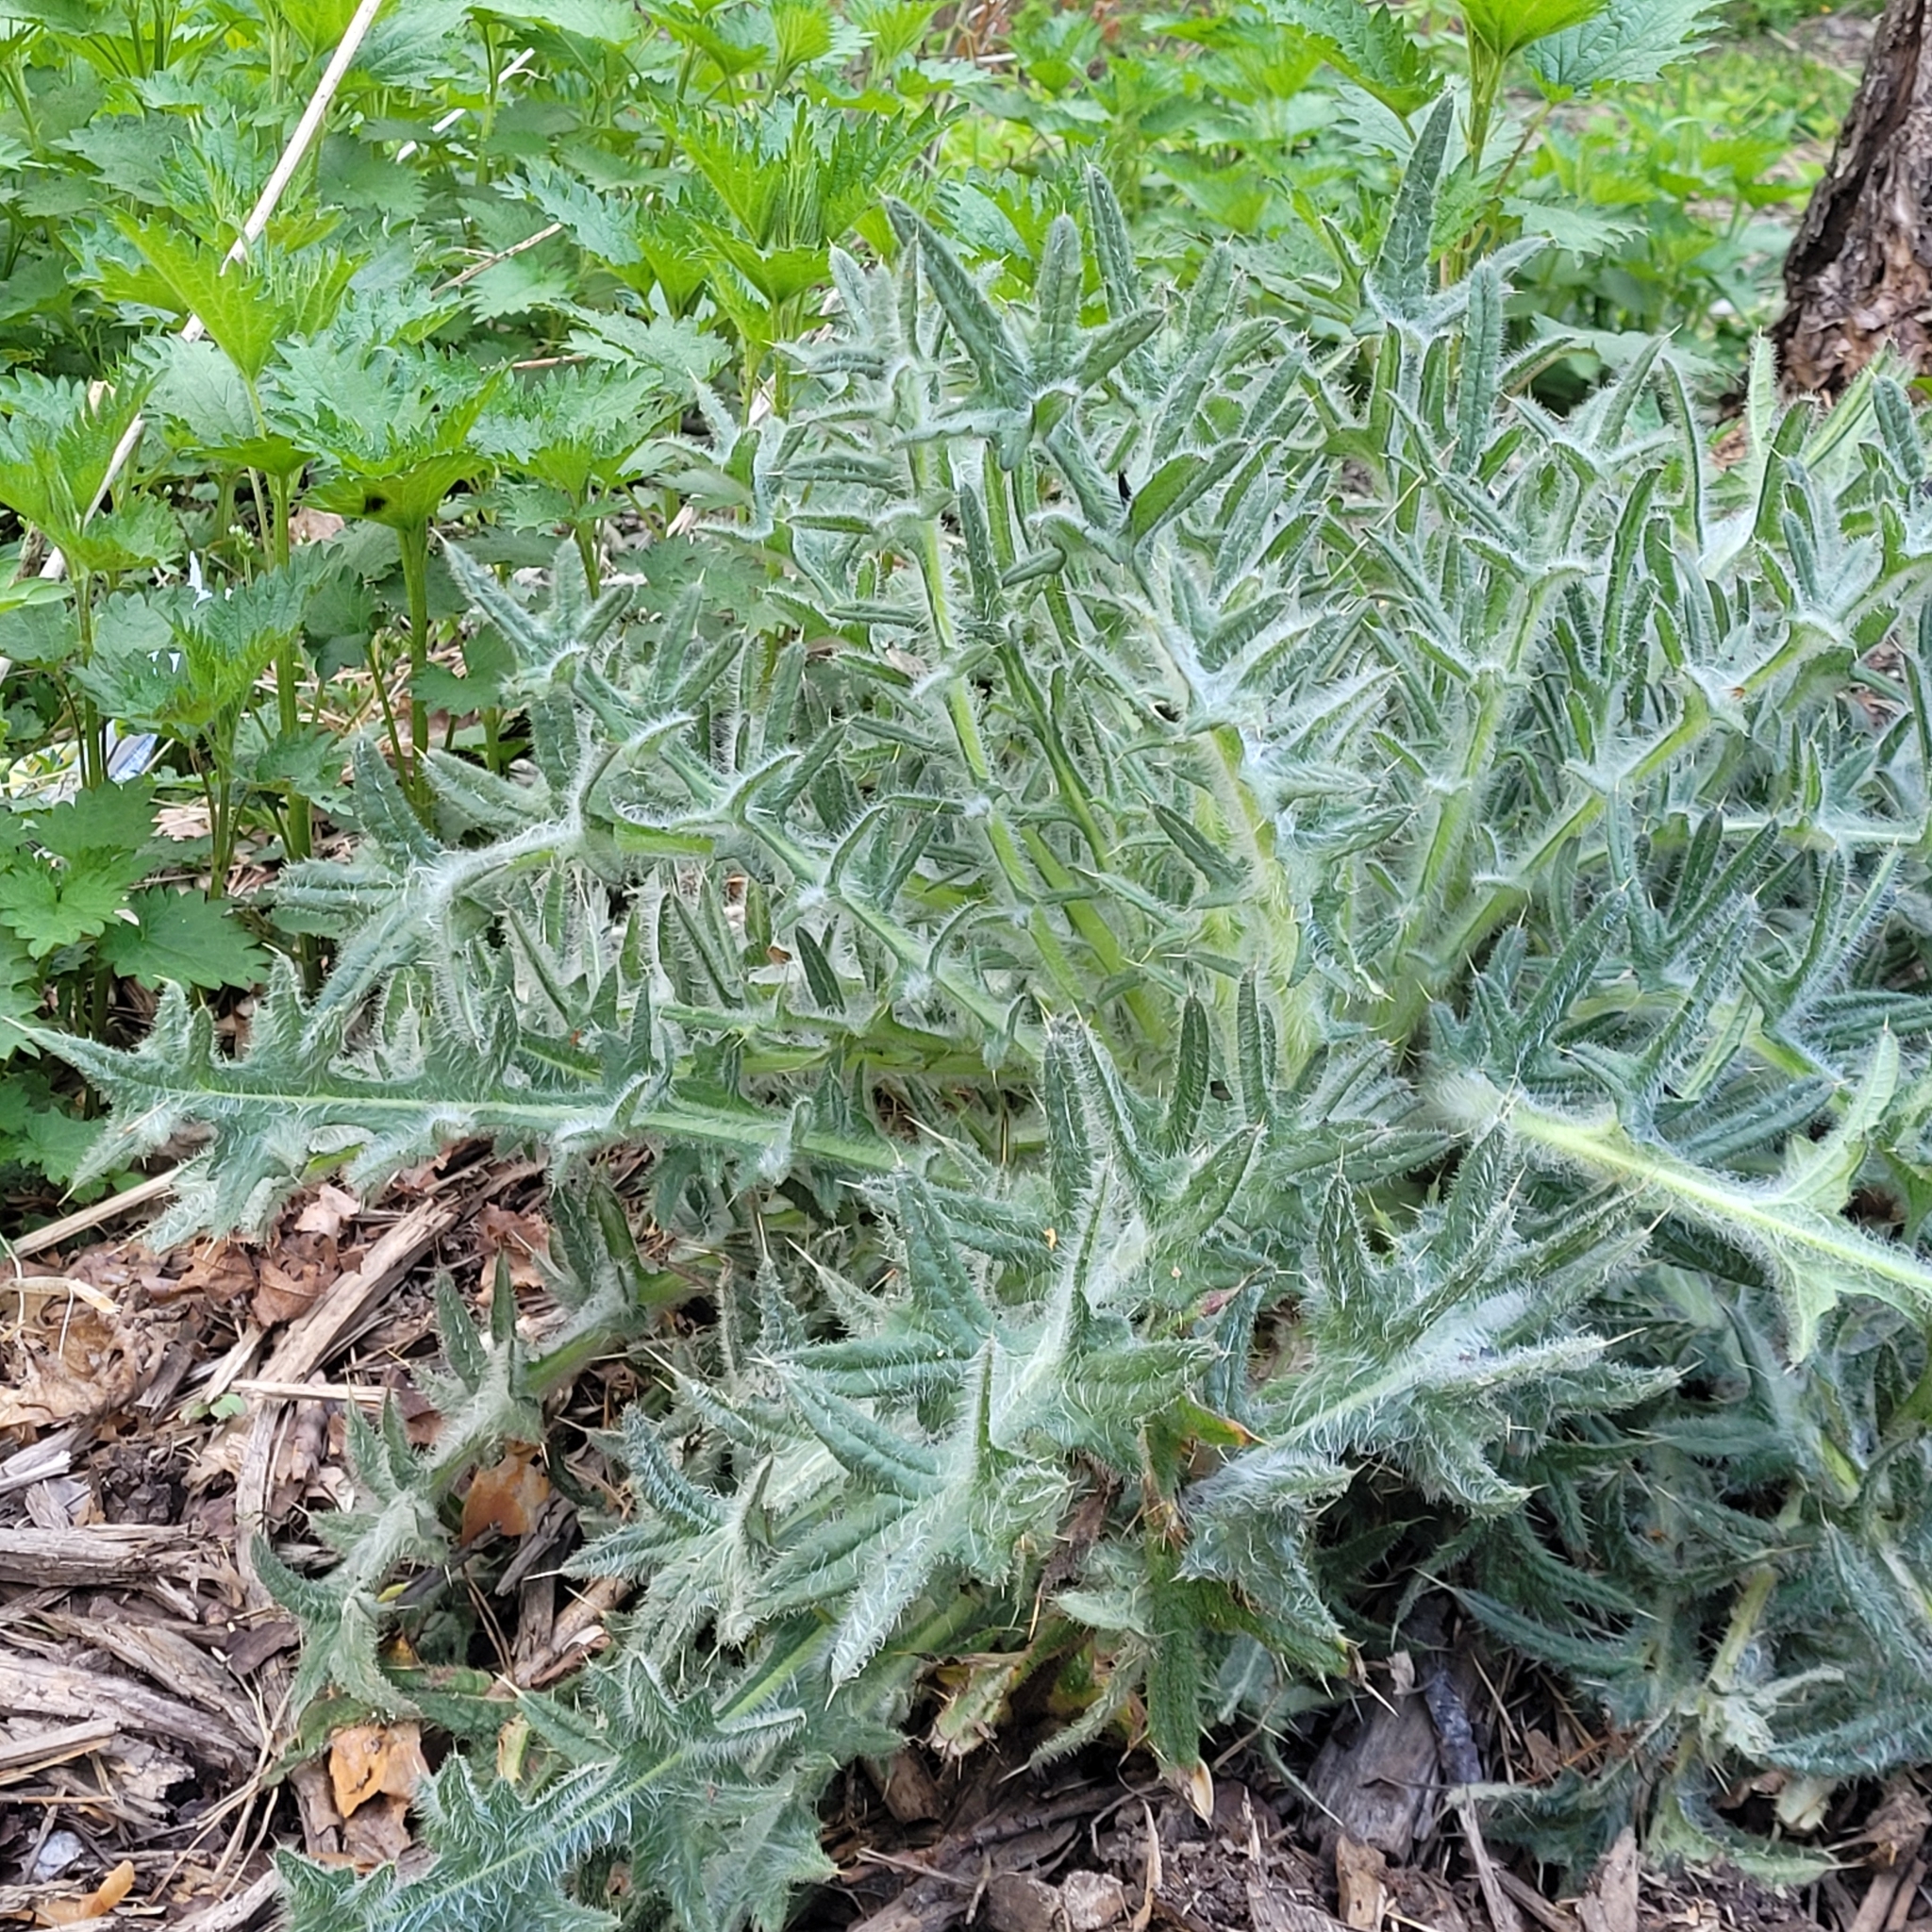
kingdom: Plantae
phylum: Tracheophyta
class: Magnoliopsida
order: Asterales
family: Asteraceae
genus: Cirsium
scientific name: Cirsium vulgare
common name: Bull thistle
